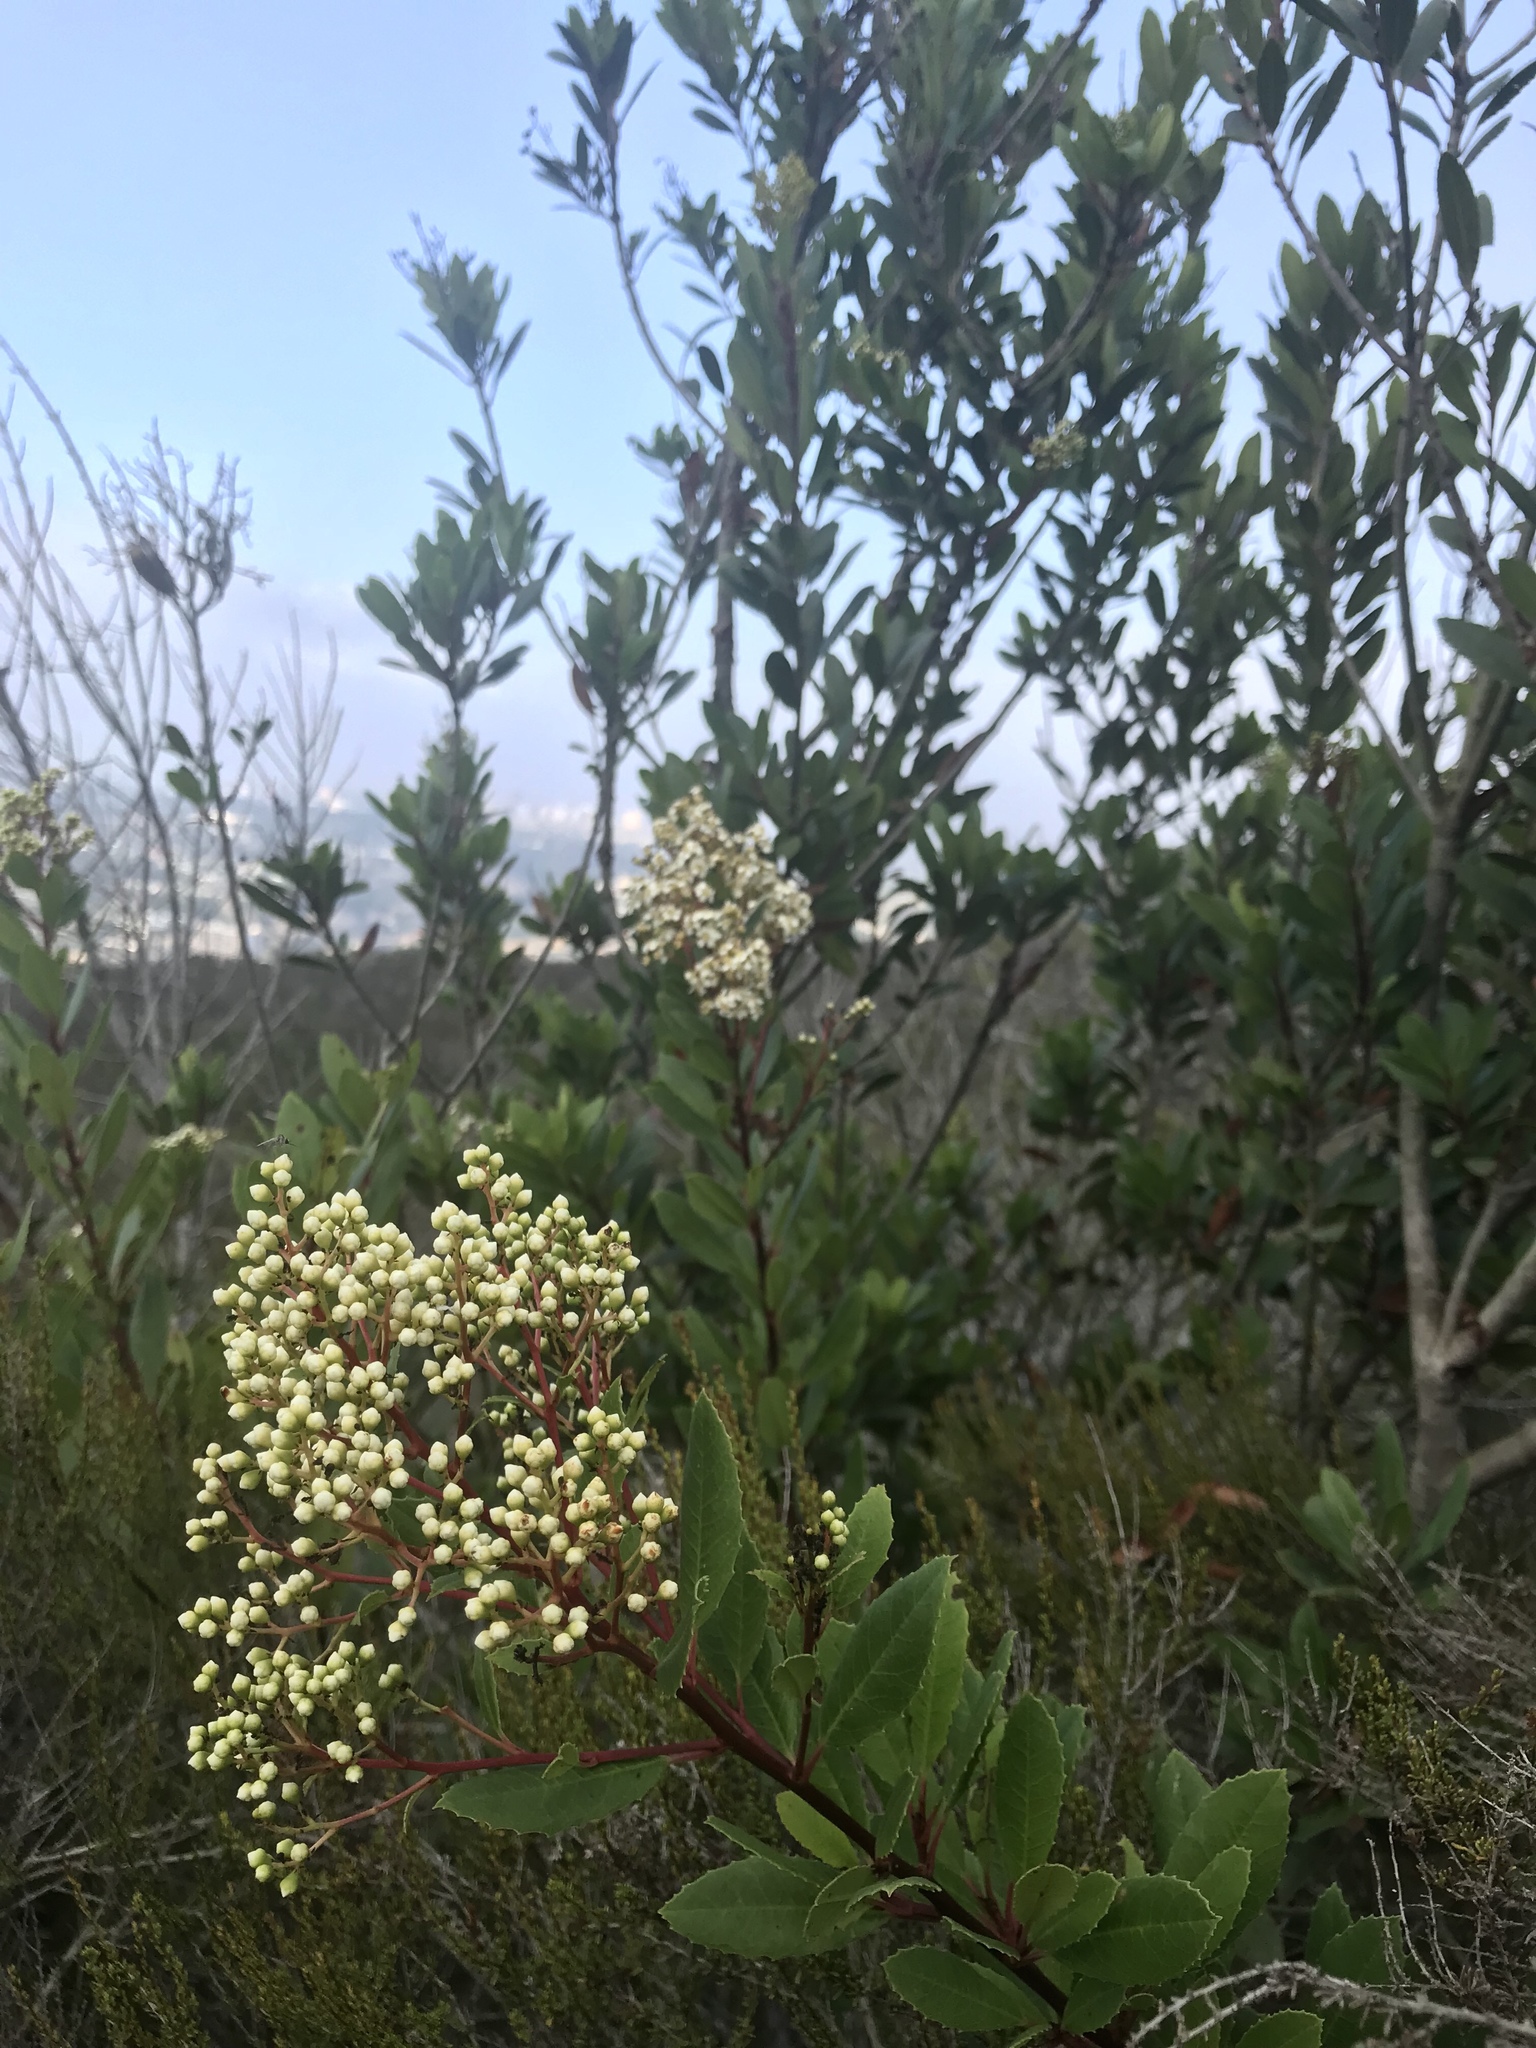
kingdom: Plantae
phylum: Tracheophyta
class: Magnoliopsida
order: Rosales
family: Rosaceae
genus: Heteromeles
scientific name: Heteromeles arbutifolia
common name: California-holly
